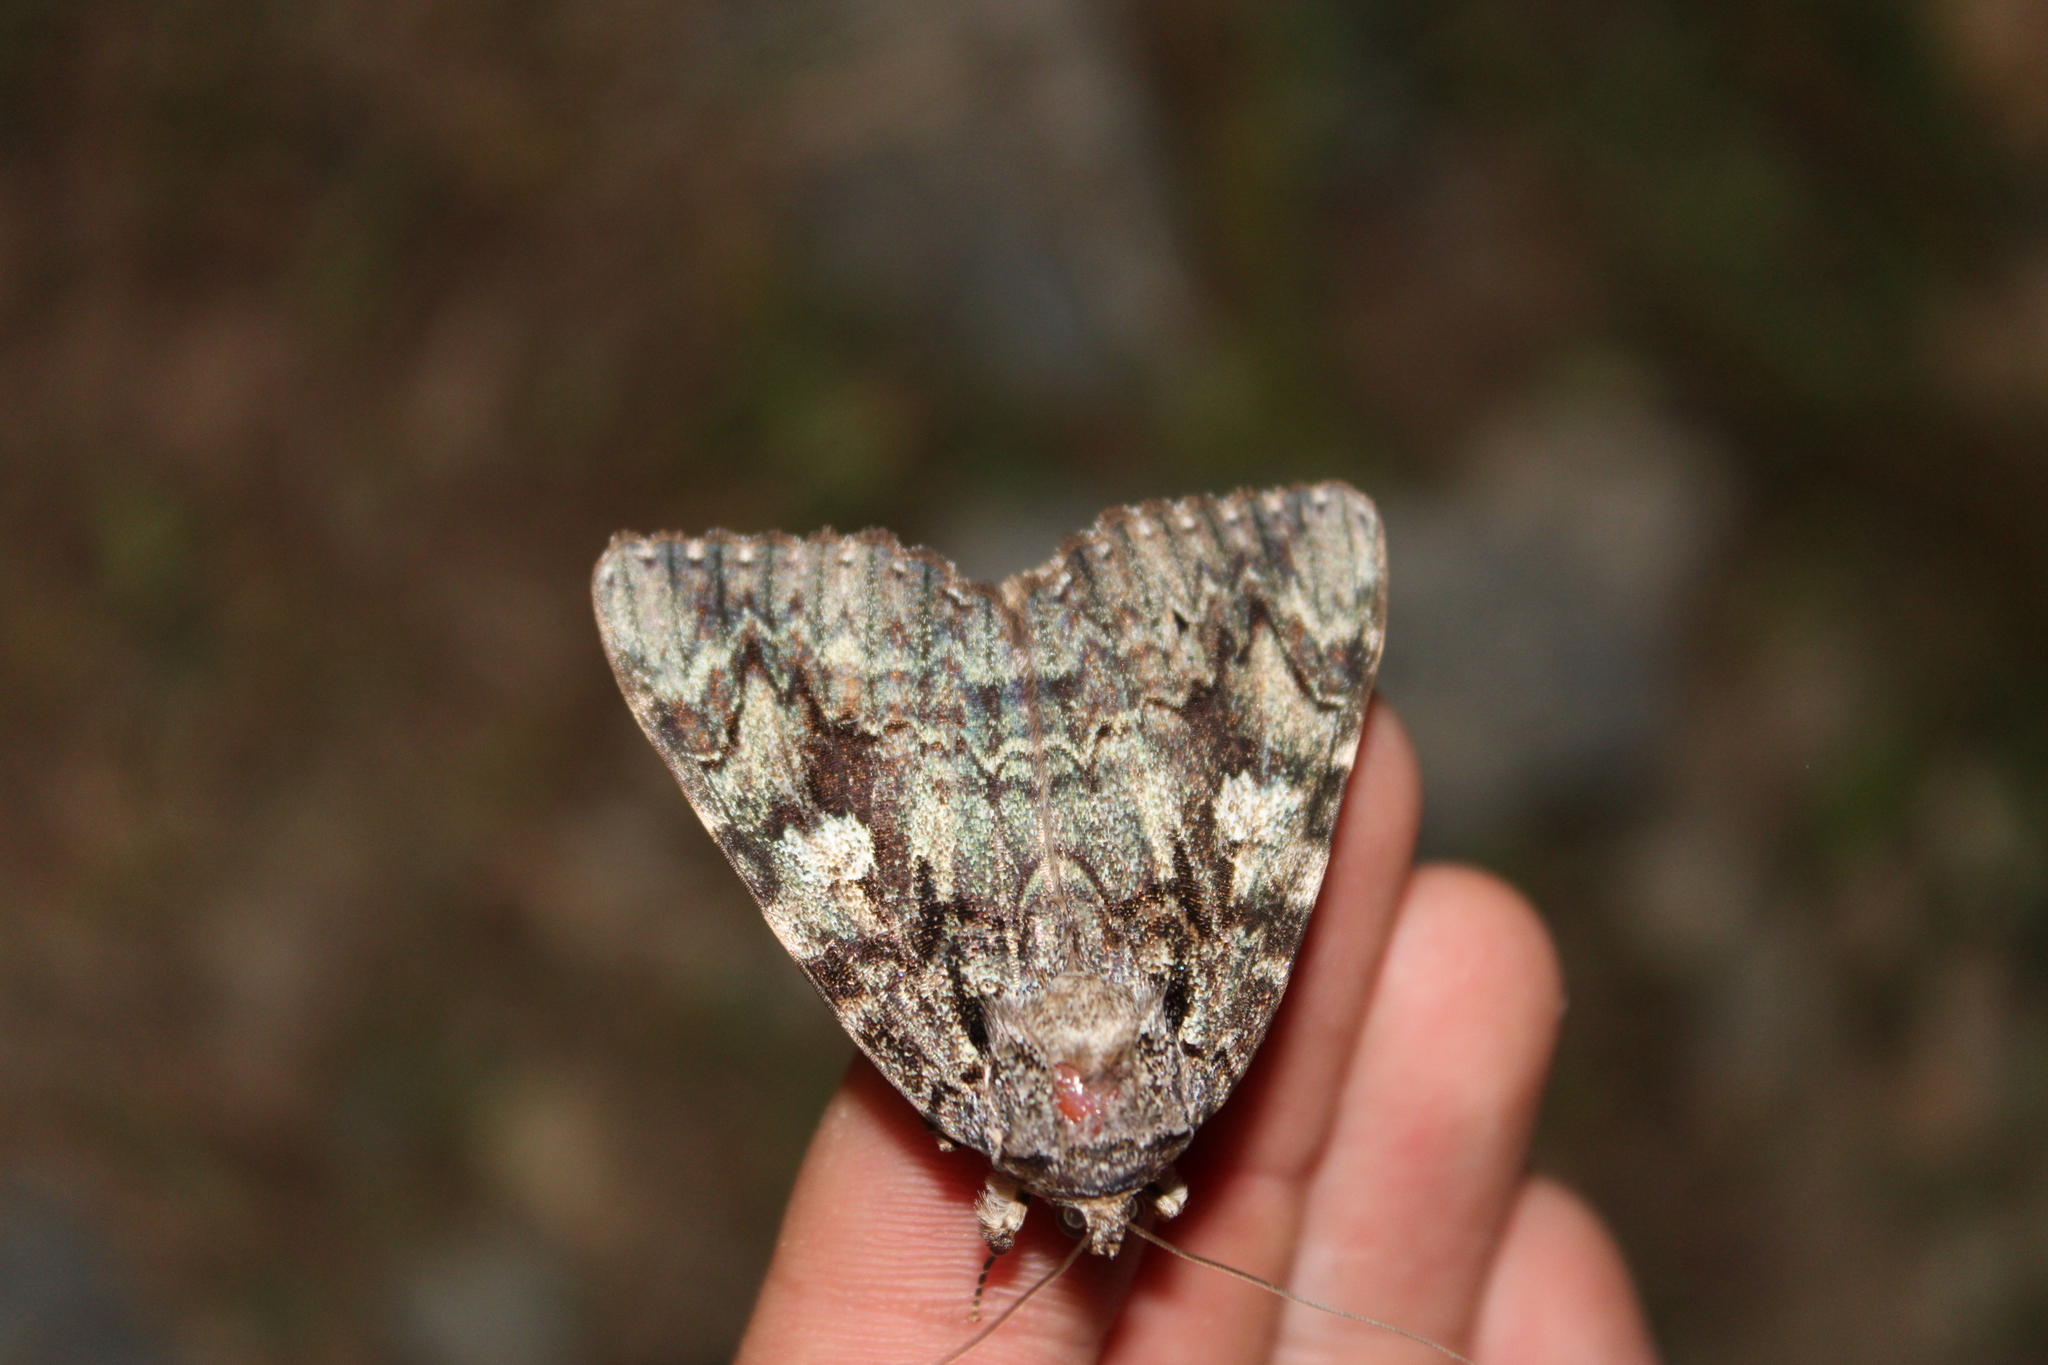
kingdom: Animalia
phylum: Arthropoda
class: Insecta
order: Lepidoptera
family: Erebidae
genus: Catocala
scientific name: Catocala ilia
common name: Ilia underwing
